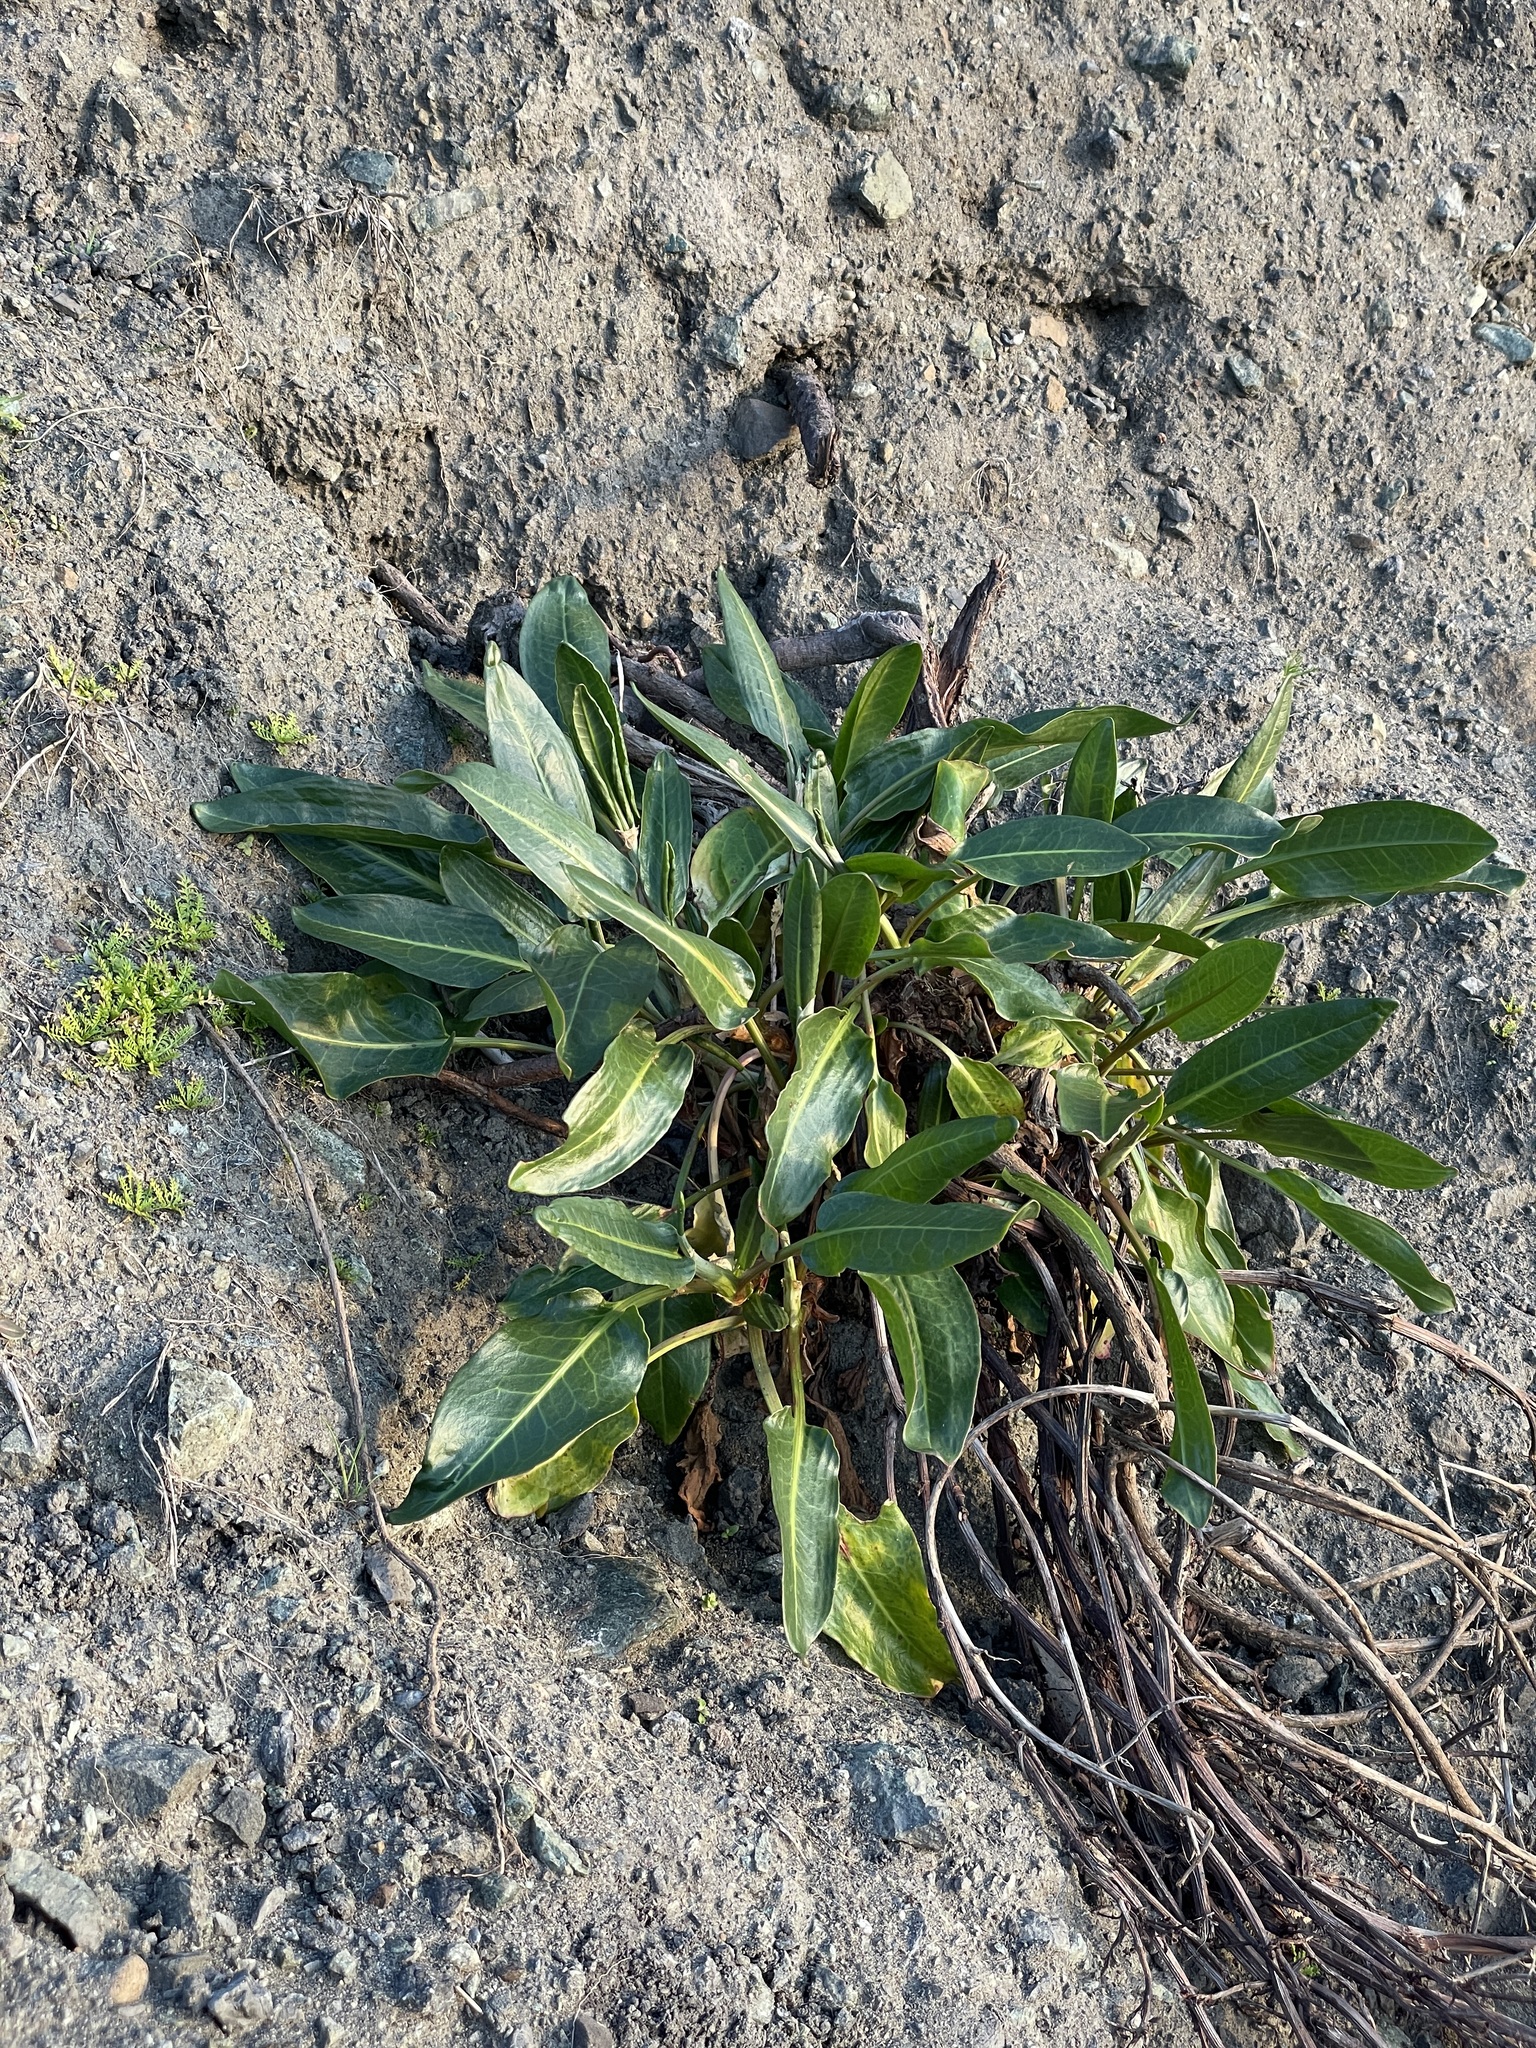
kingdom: Plantae
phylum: Tracheophyta
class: Magnoliopsida
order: Caryophyllales
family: Polygonaceae
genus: Rumex
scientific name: Rumex crassus
